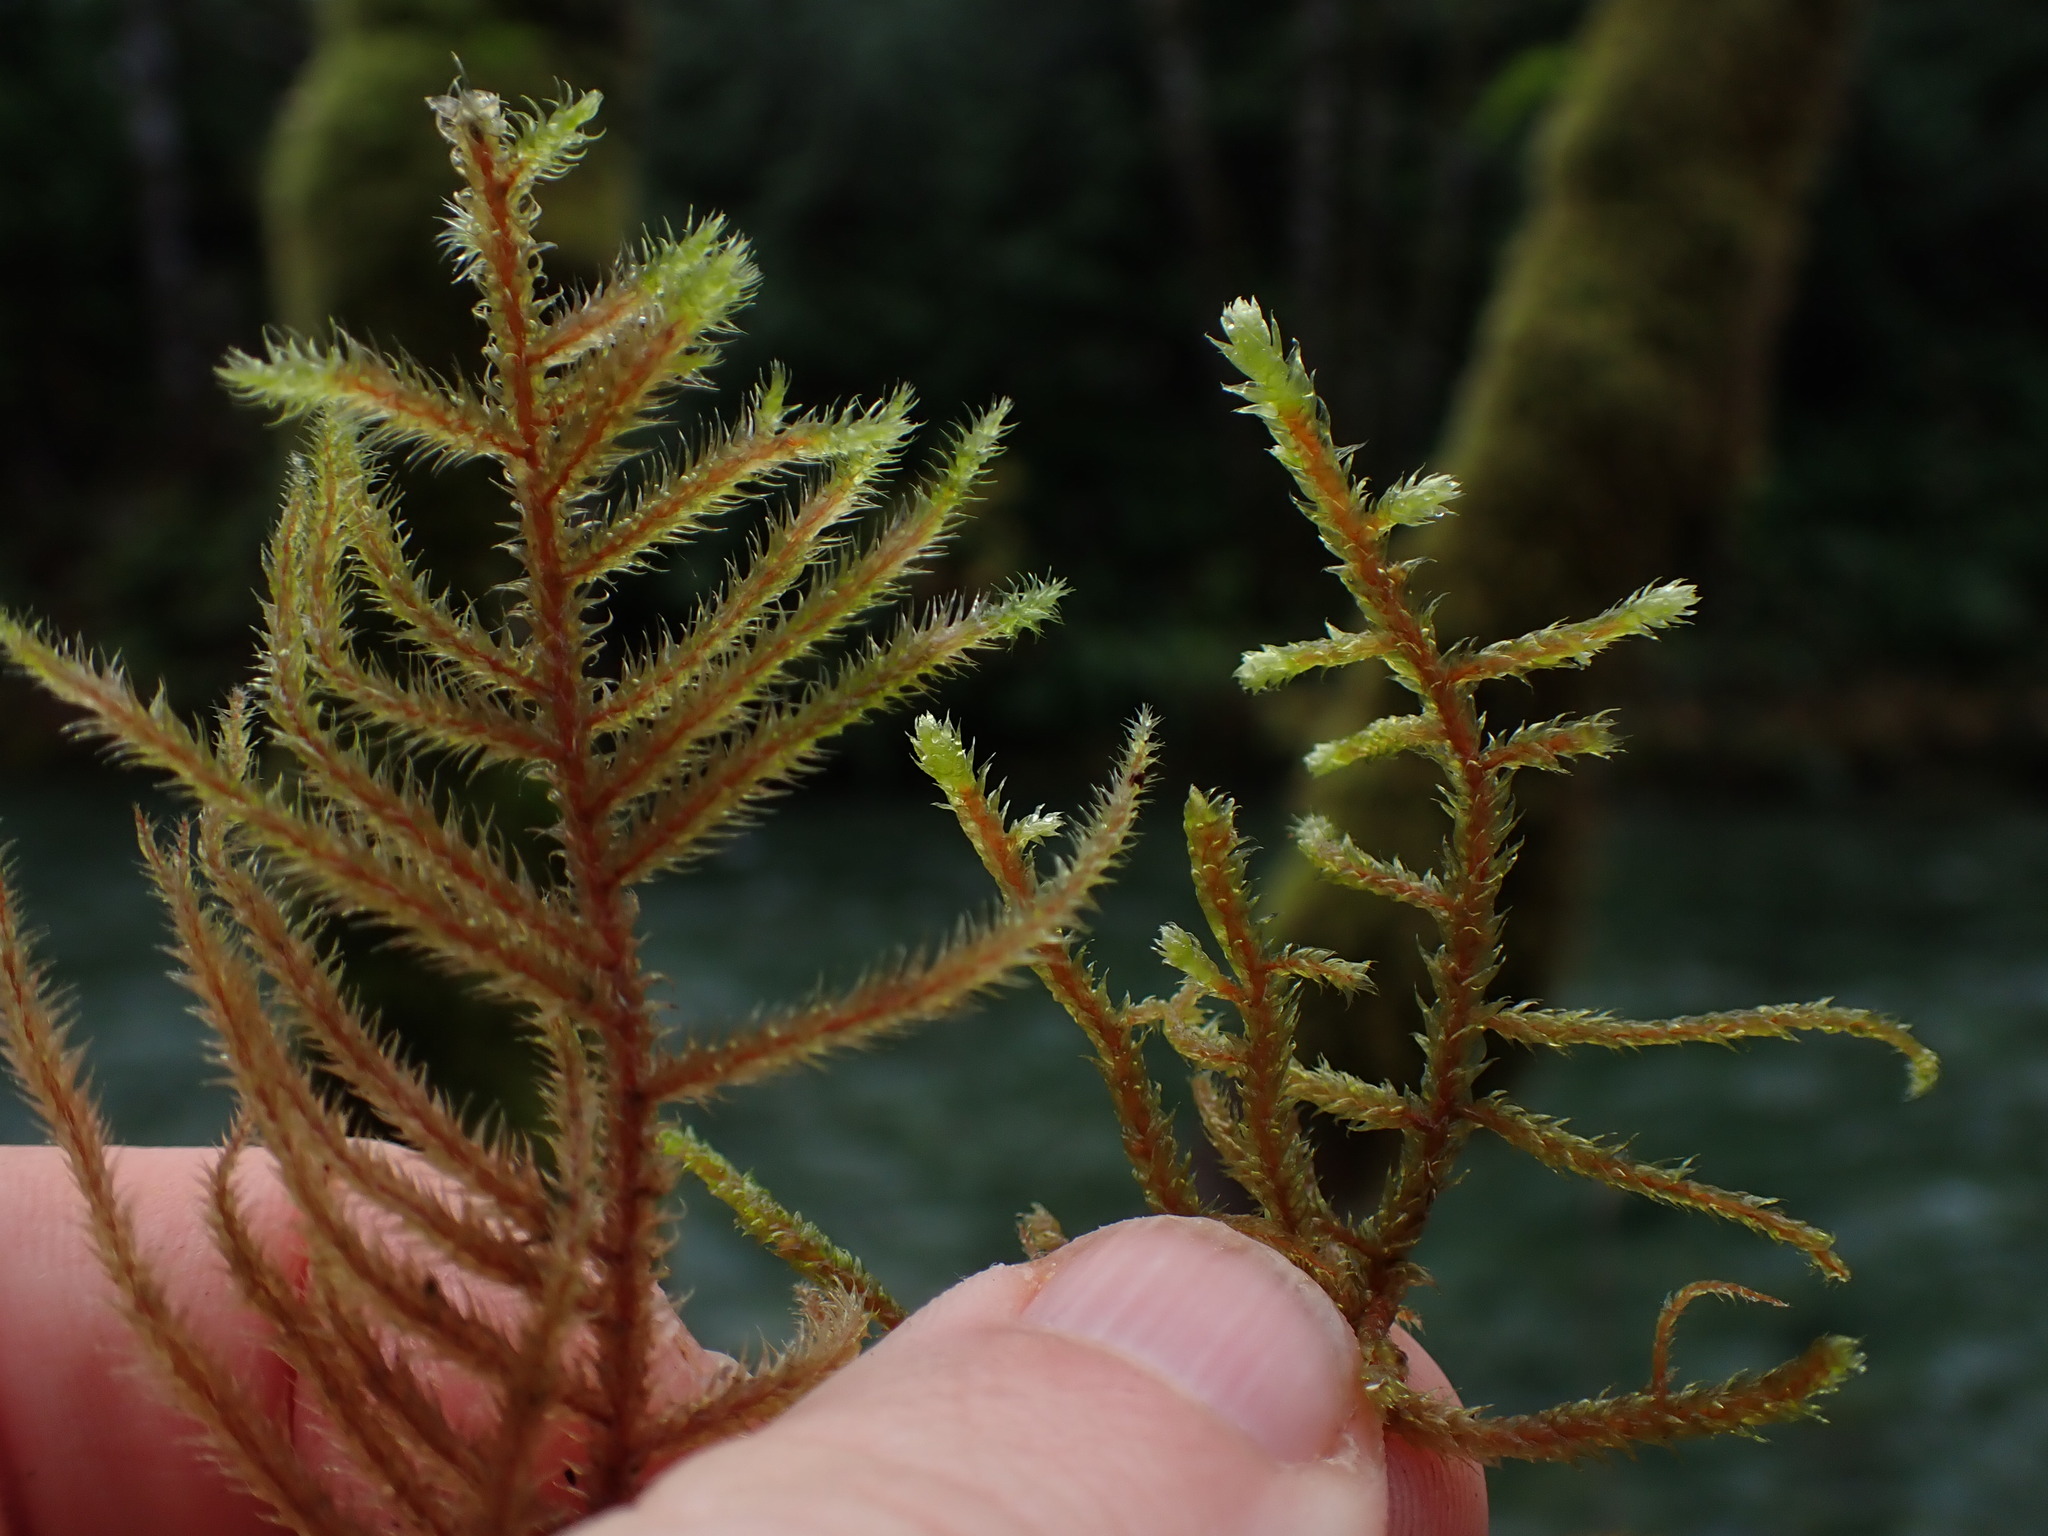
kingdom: Plantae
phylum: Bryophyta
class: Bryopsida
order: Hypnales
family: Hylocomiaceae
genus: Rhytidiadelphus
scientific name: Rhytidiadelphus loreus
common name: Lanky moss
